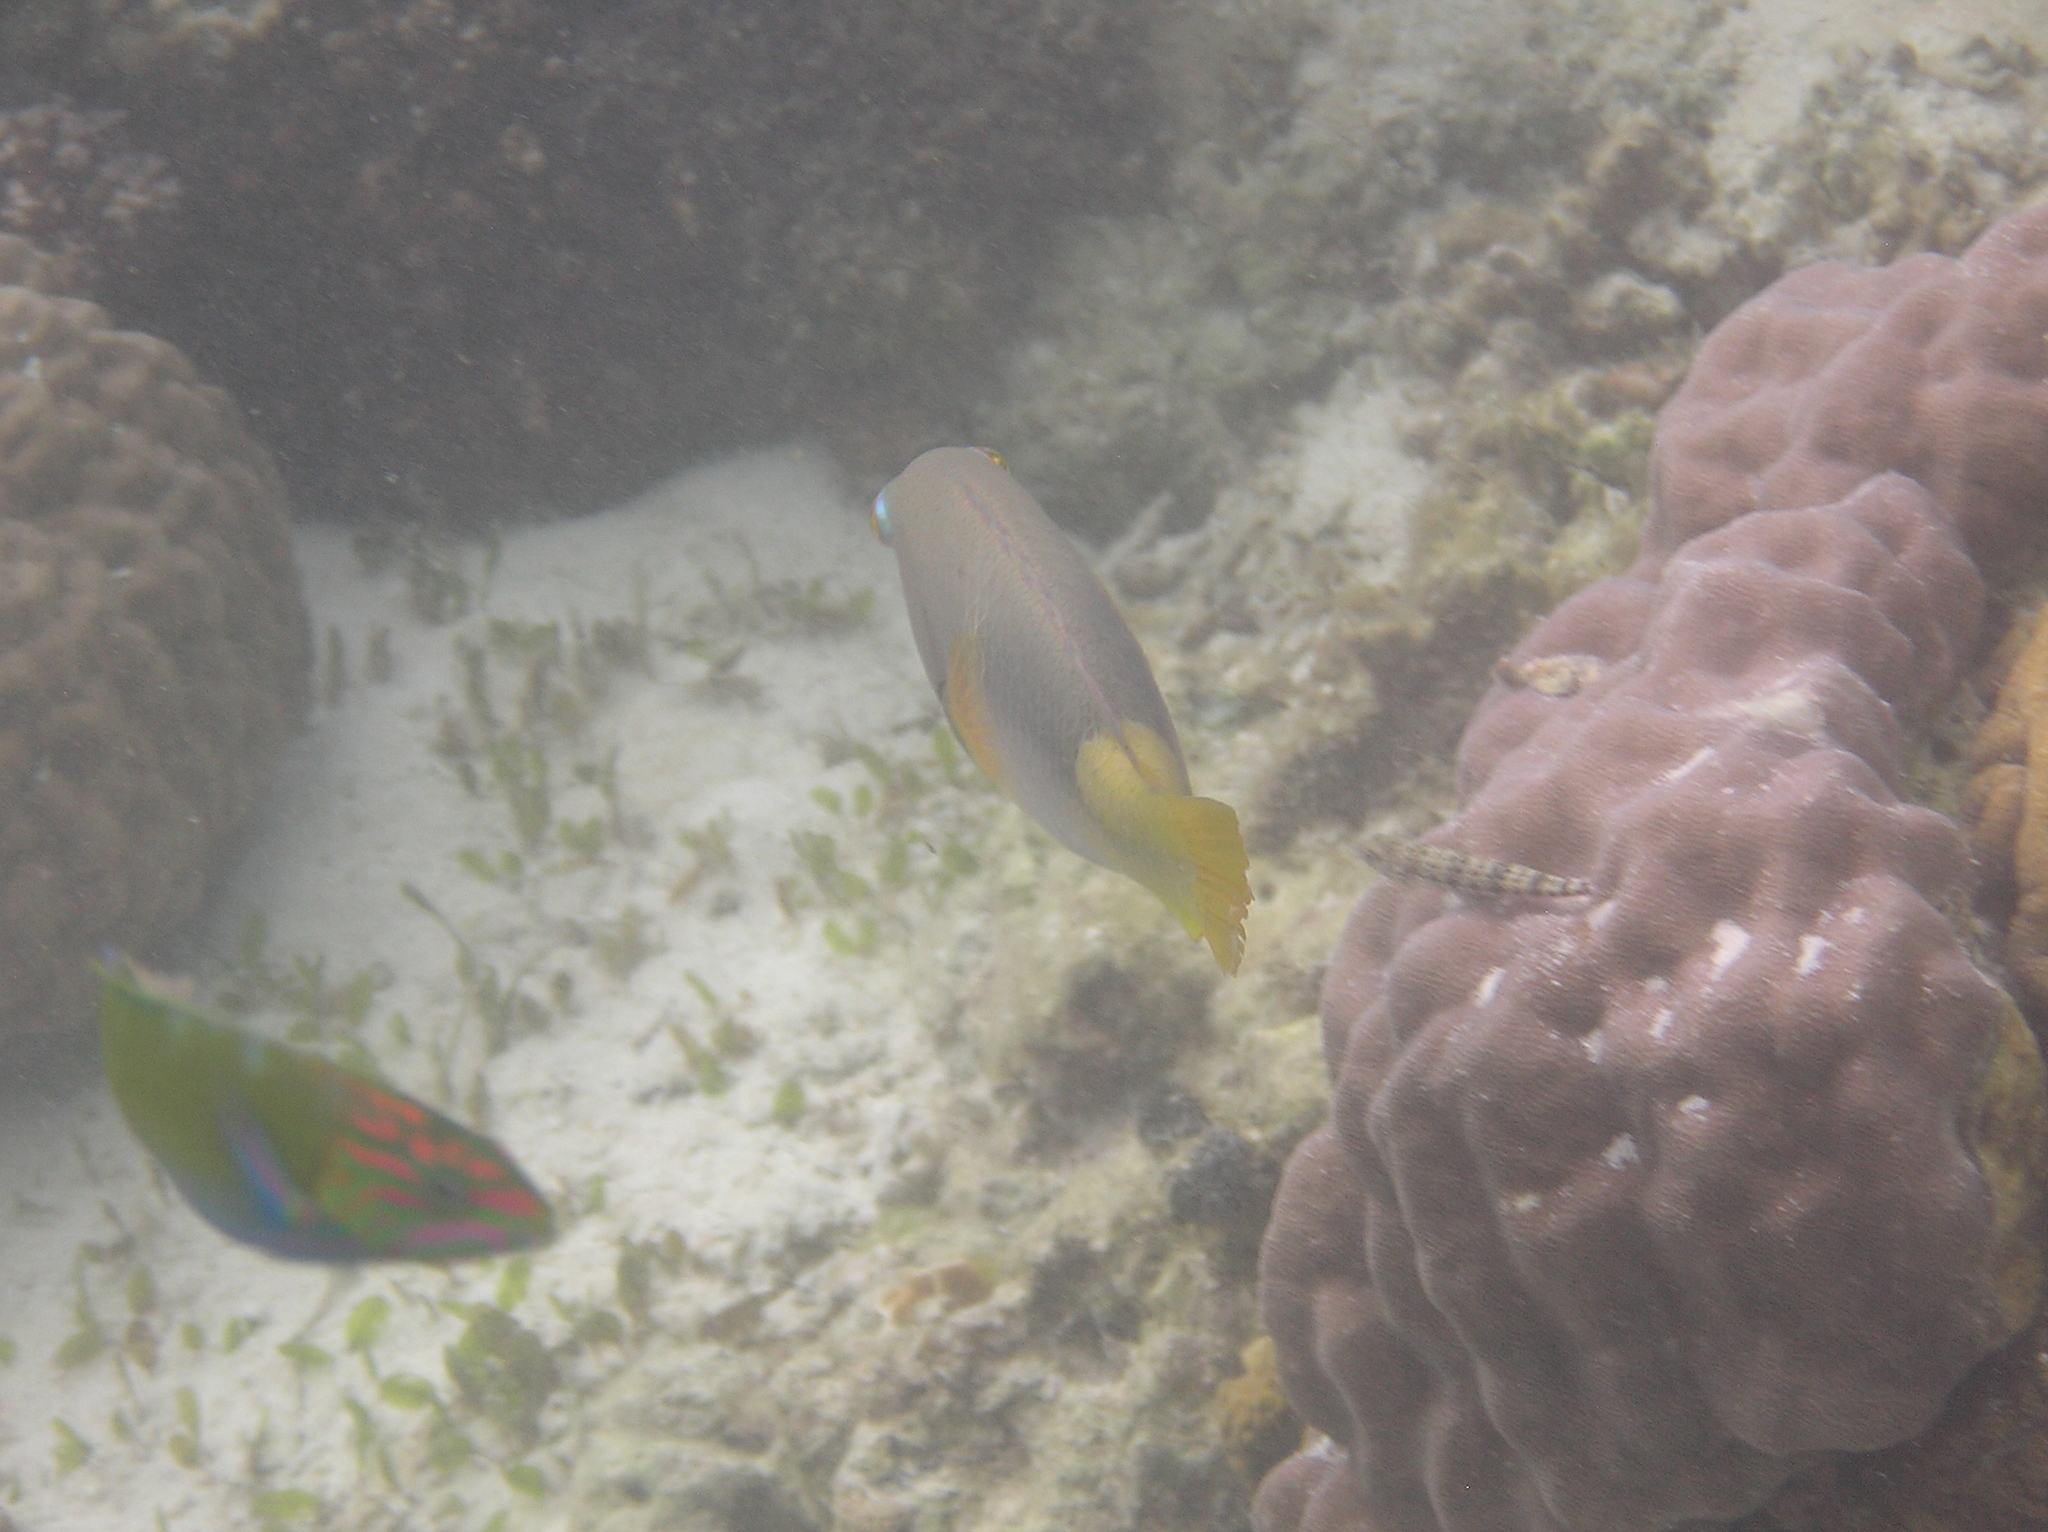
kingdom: Animalia
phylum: Chordata
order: Perciformes
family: Labridae
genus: Choerodon
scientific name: Choerodon anchorago
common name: Anchor tuskfish
